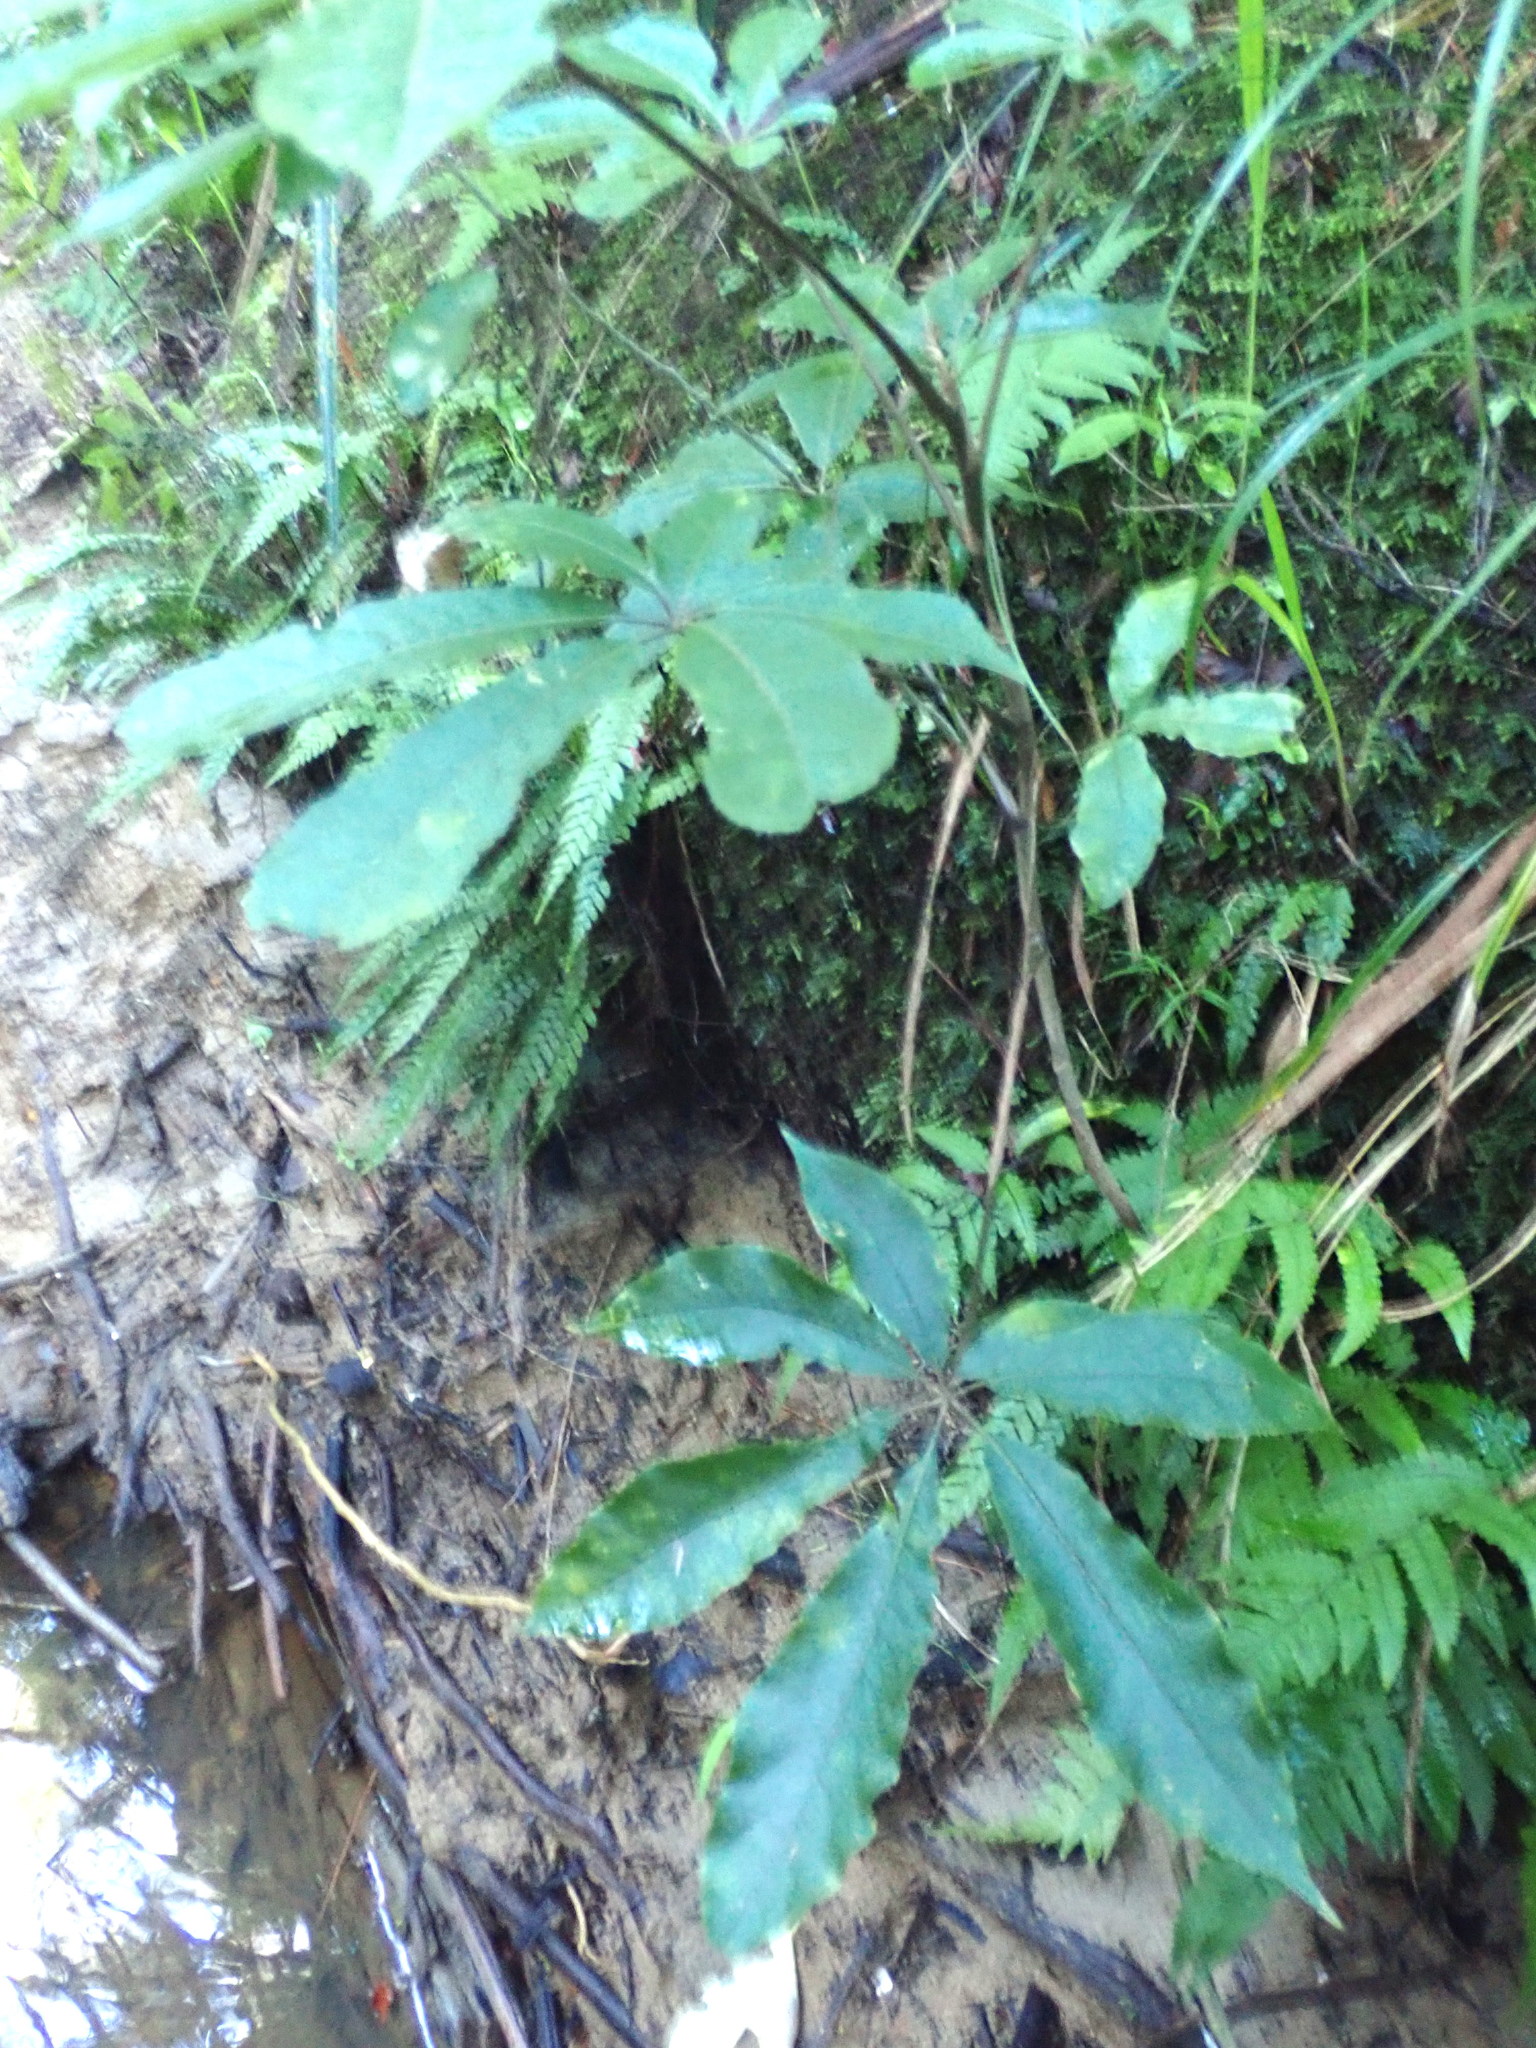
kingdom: Plantae
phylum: Tracheophyta
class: Magnoliopsida
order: Apiales
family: Araliaceae
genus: Schefflera
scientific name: Schefflera digitata
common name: Pate
